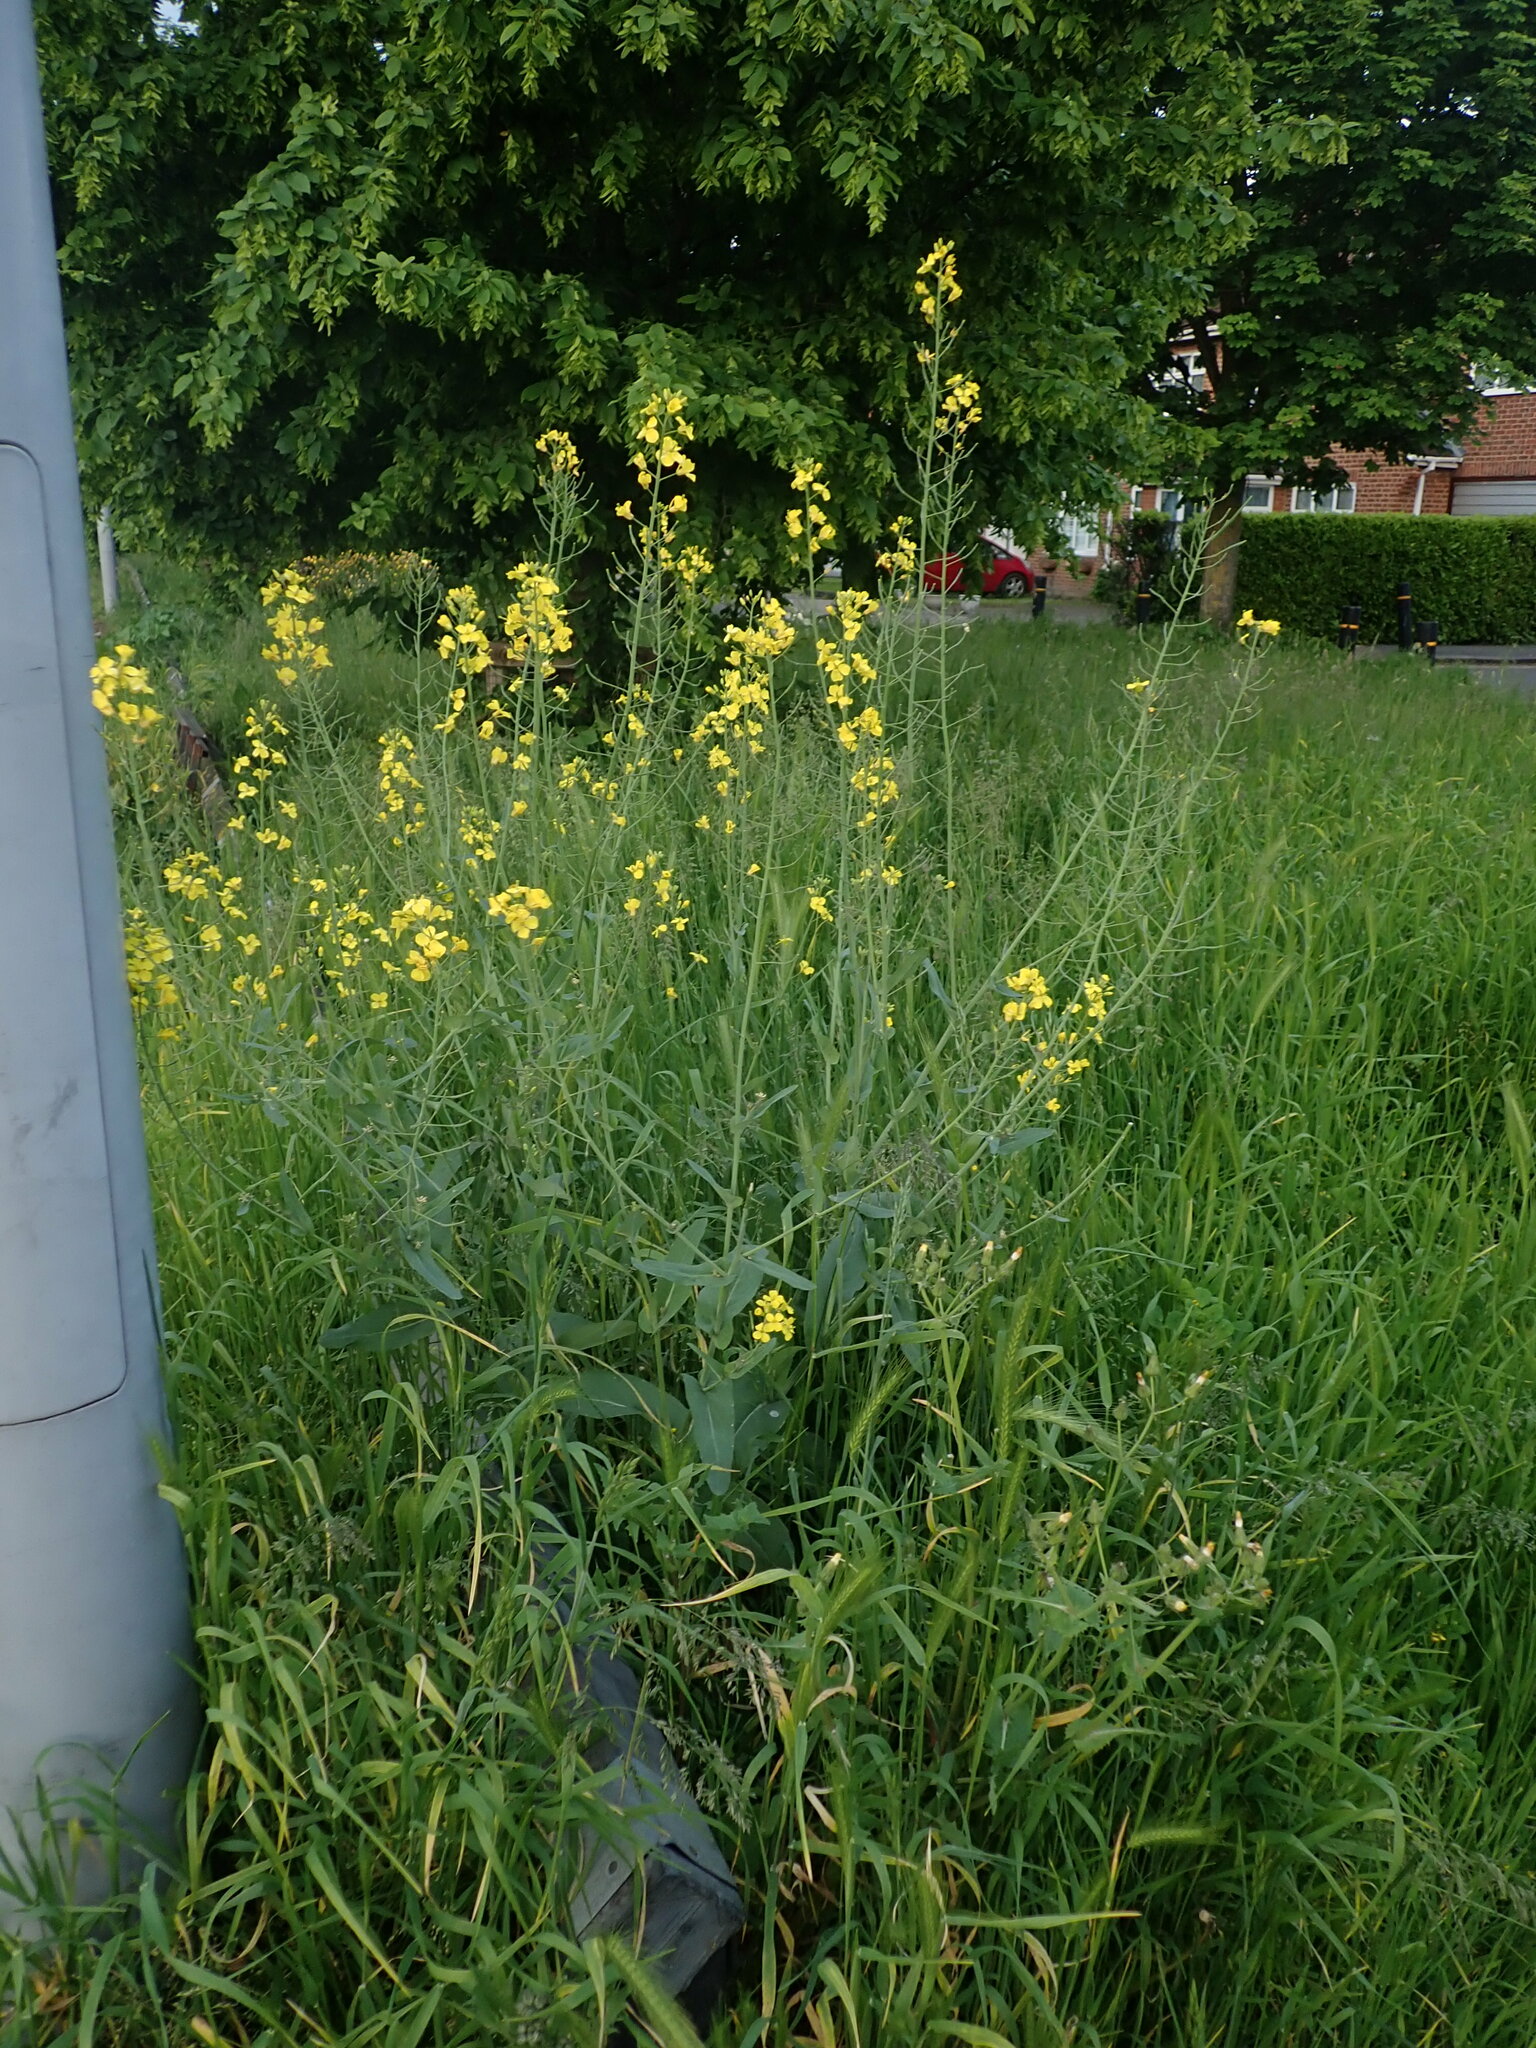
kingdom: Plantae
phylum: Tracheophyta
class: Magnoliopsida
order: Brassicales
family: Brassicaceae
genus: Brassica
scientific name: Brassica napus
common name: Rape
